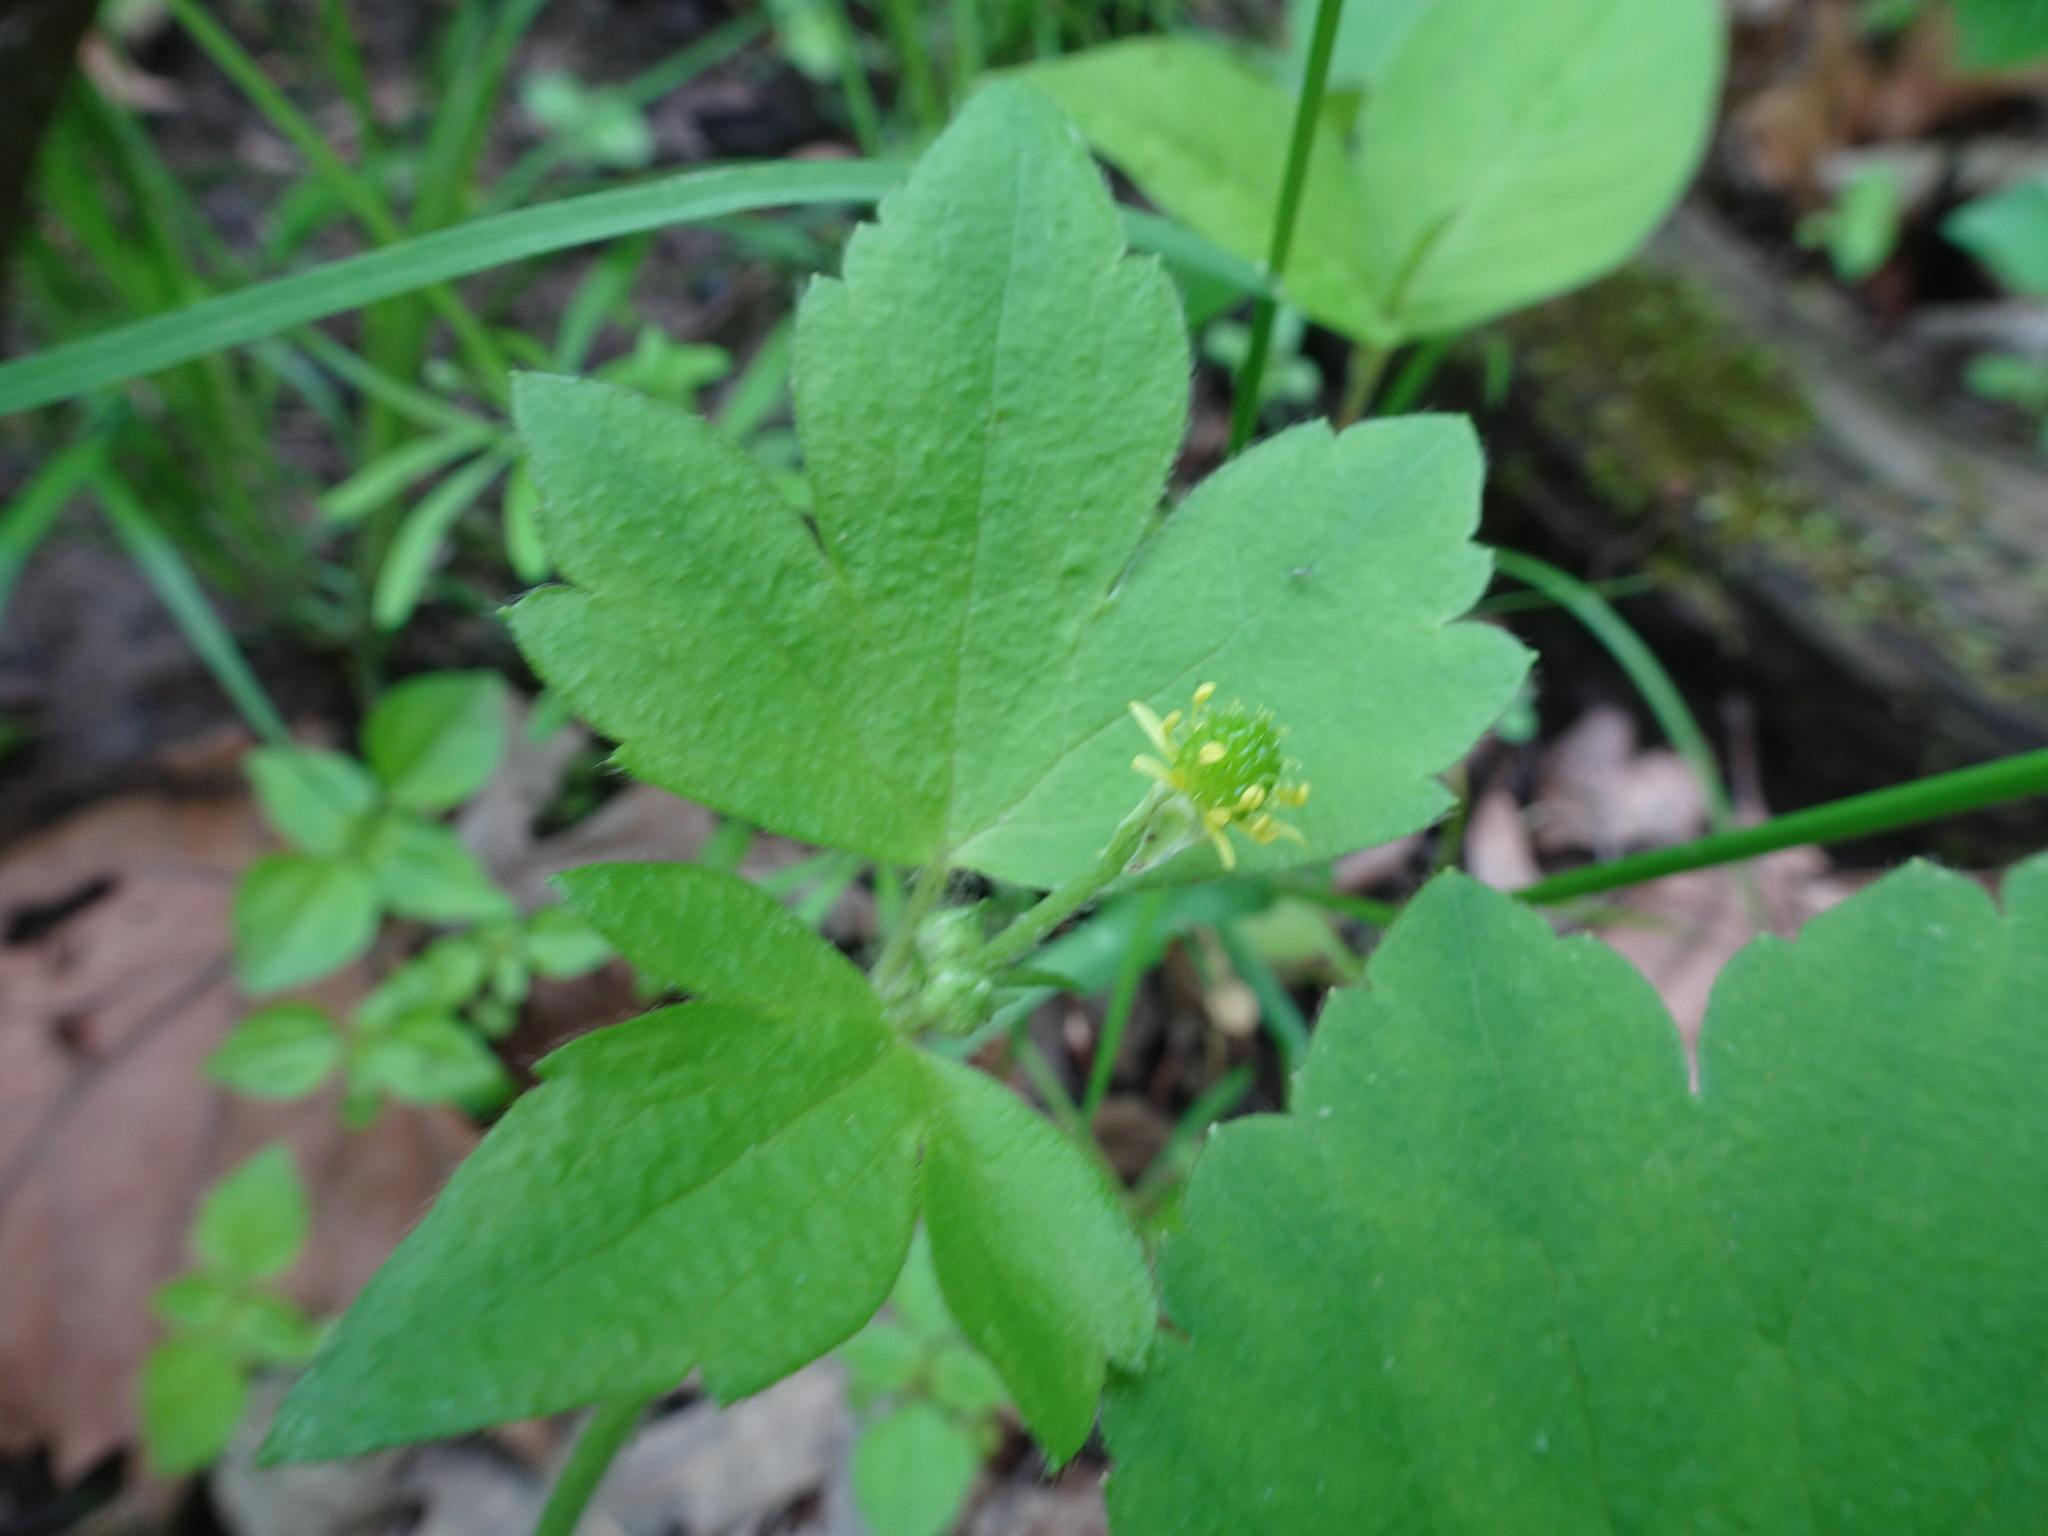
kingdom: Plantae
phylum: Tracheophyta
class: Magnoliopsida
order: Ranunculales
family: Ranunculaceae
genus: Ranunculus
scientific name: Ranunculus recurvatus
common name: Blisterwort
